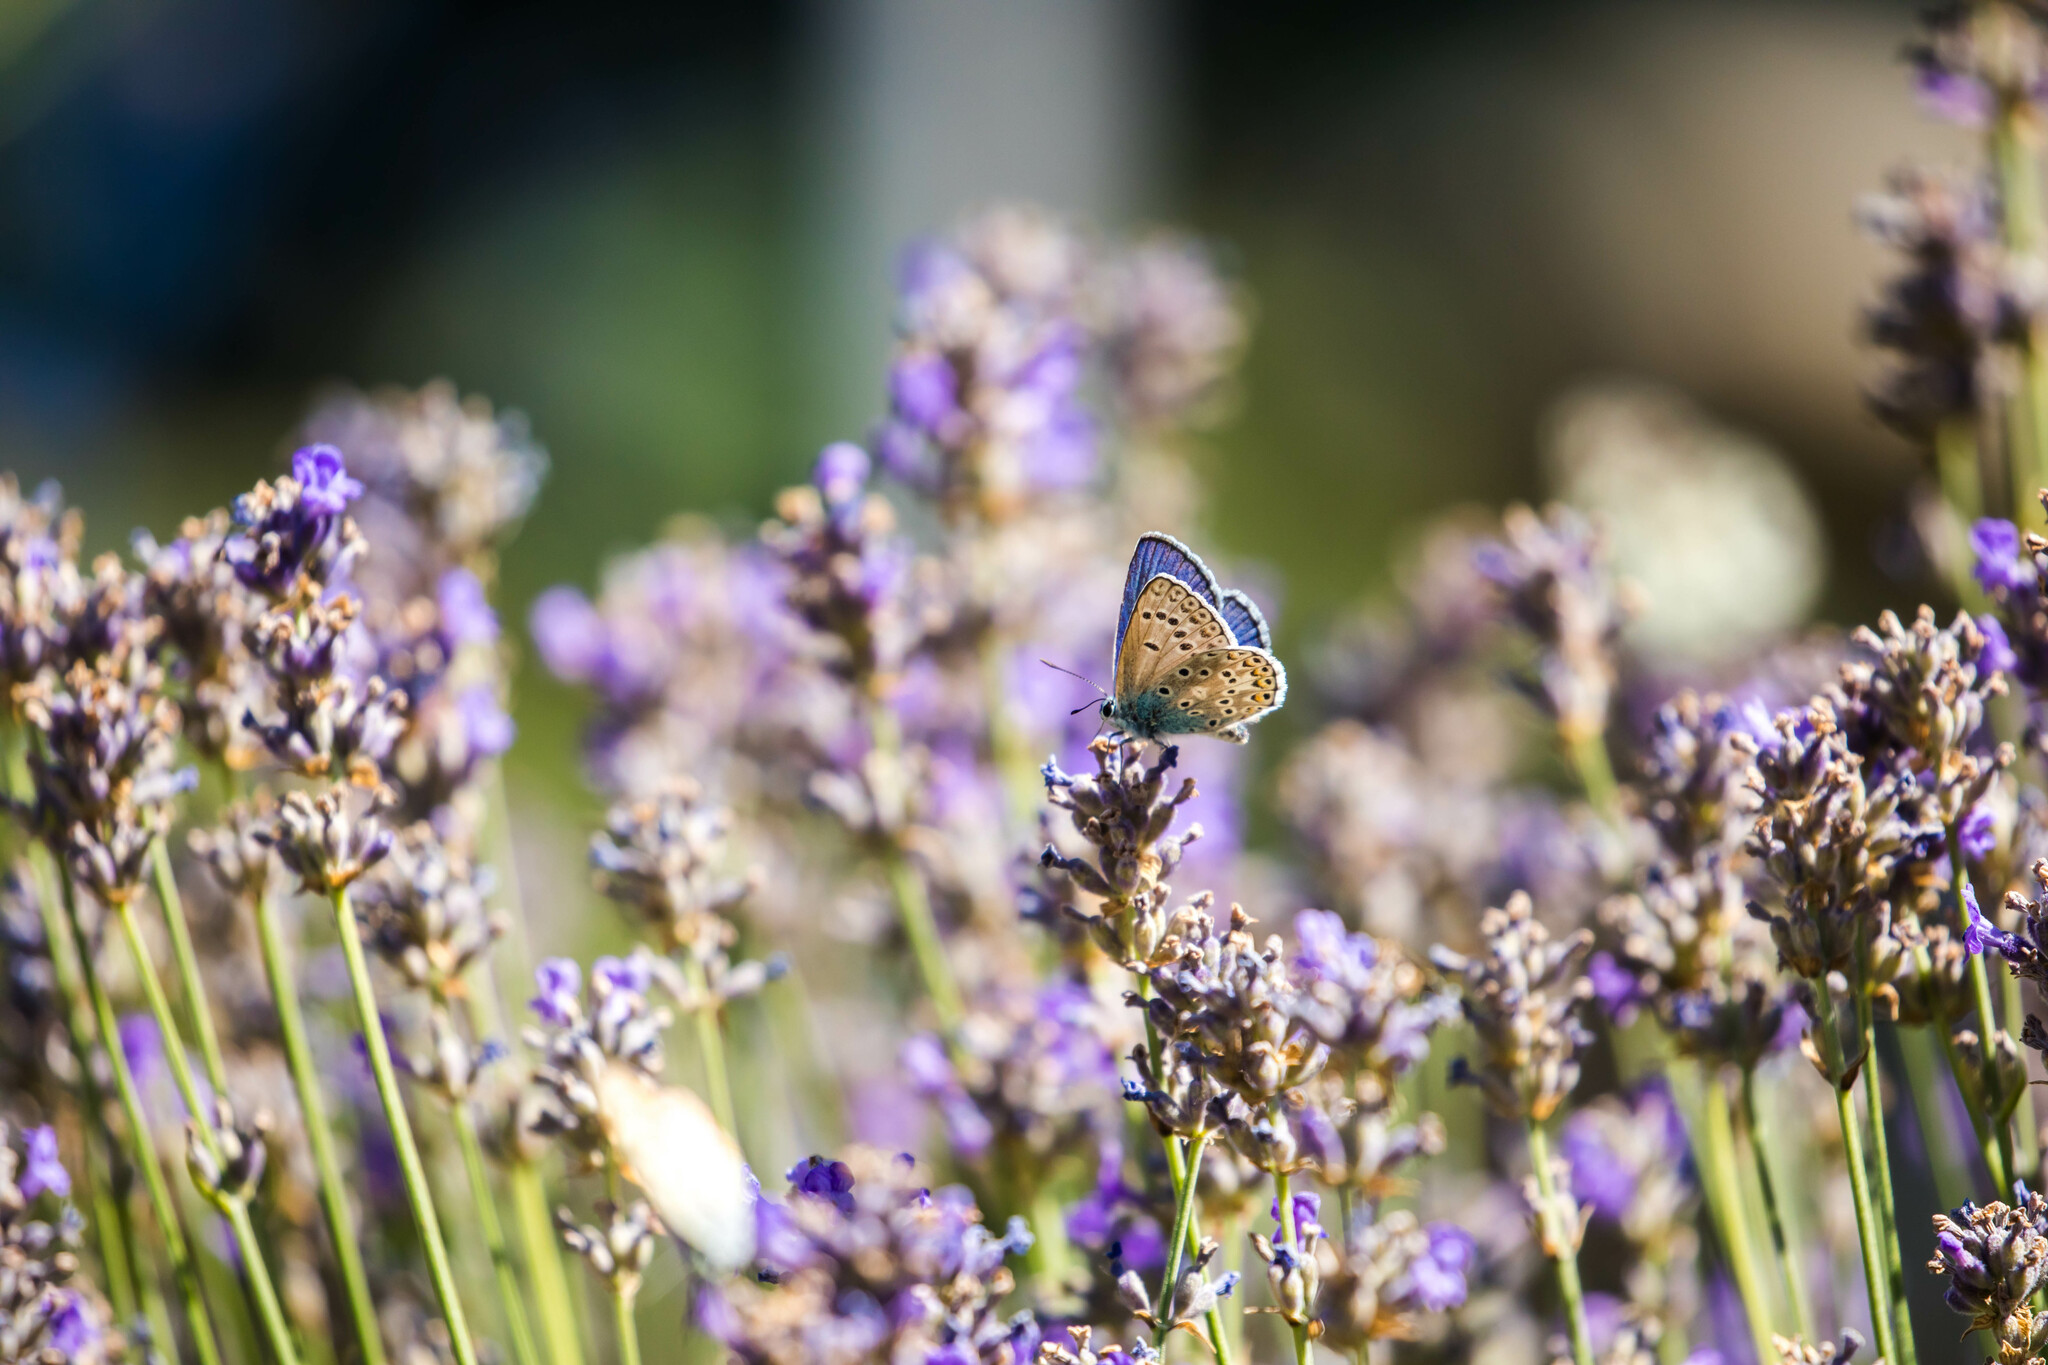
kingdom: Animalia
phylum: Arthropoda
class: Insecta
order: Lepidoptera
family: Lycaenidae
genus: Plebicula
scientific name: Plebicula escheri
